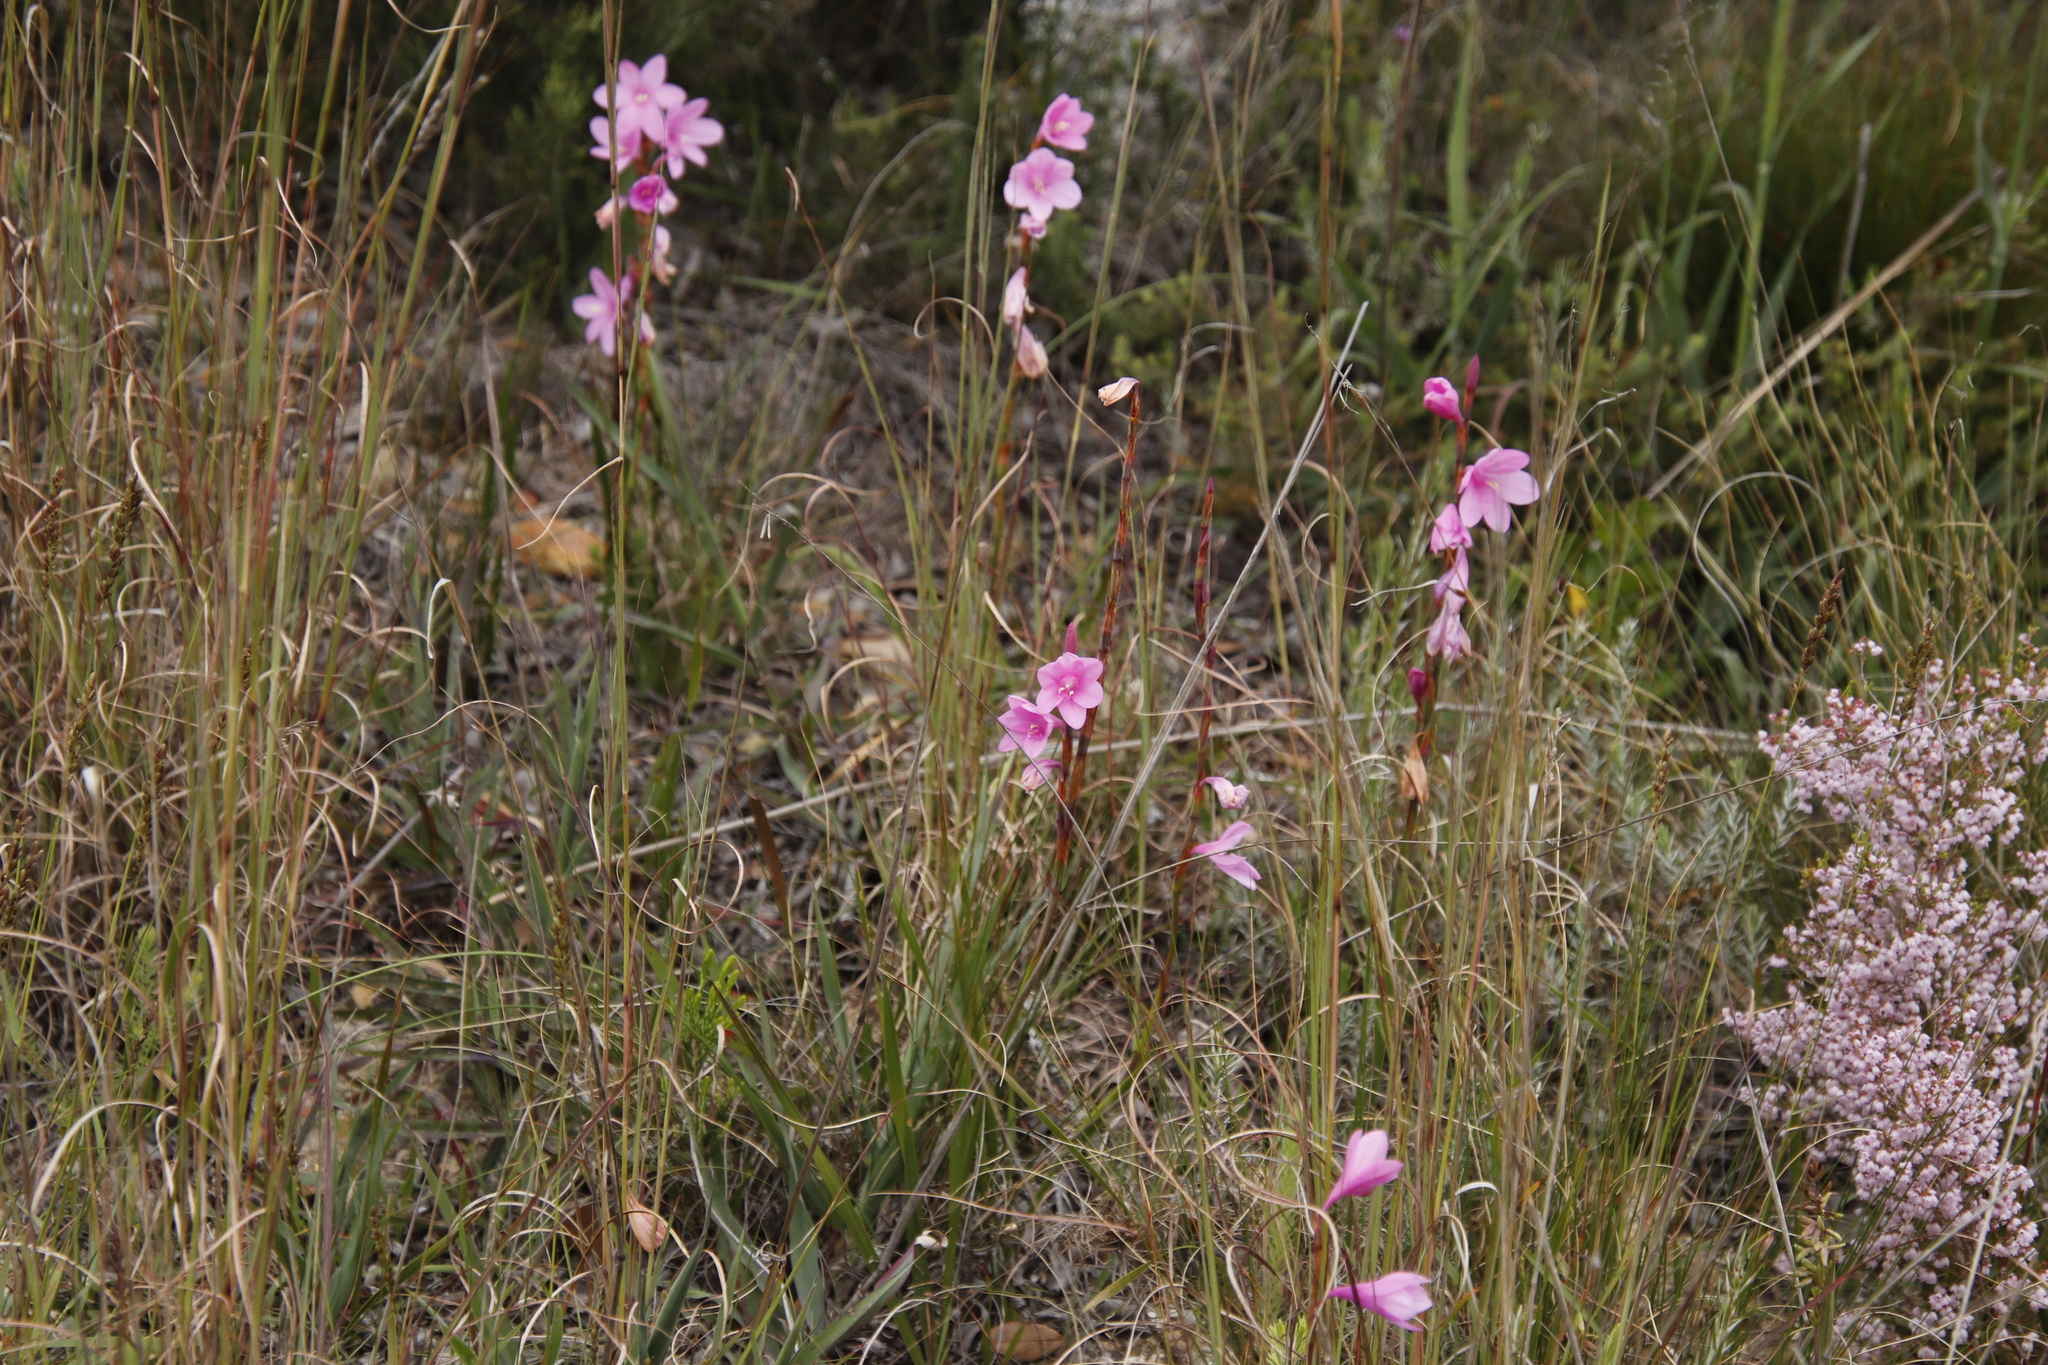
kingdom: Plantae
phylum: Tracheophyta
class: Liliopsida
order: Asparagales
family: Iridaceae
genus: Watsonia
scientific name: Watsonia laccata
